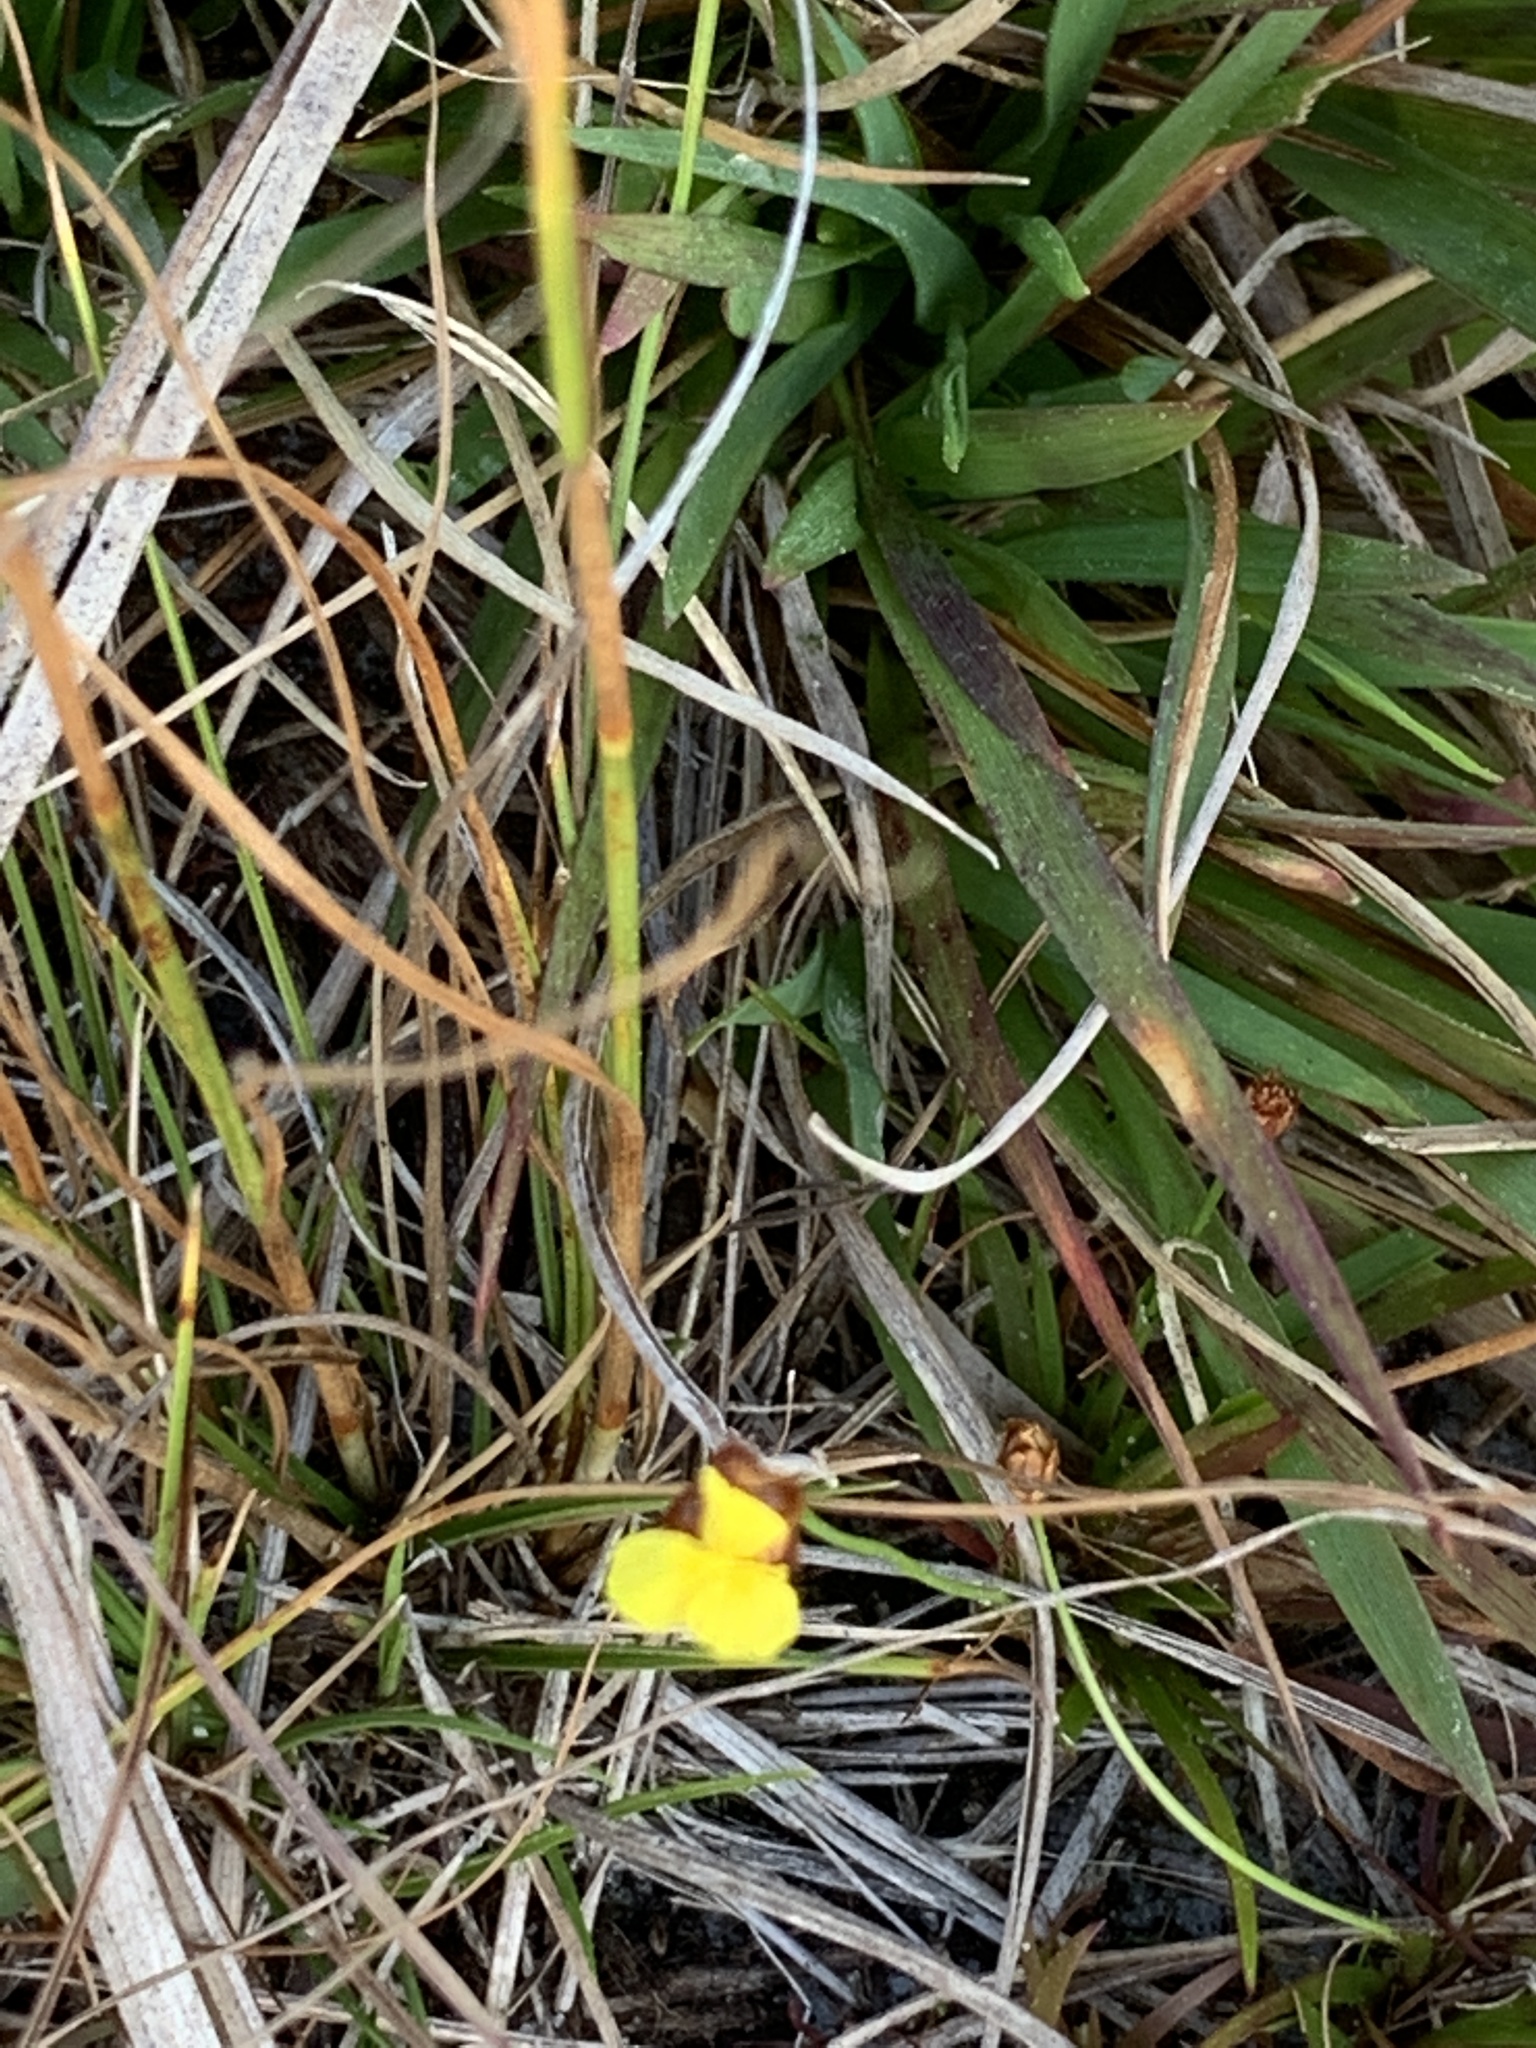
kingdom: Plantae
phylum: Tracheophyta
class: Liliopsida
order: Poales
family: Xyridaceae
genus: Xyris
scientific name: Xyris brevifolia
